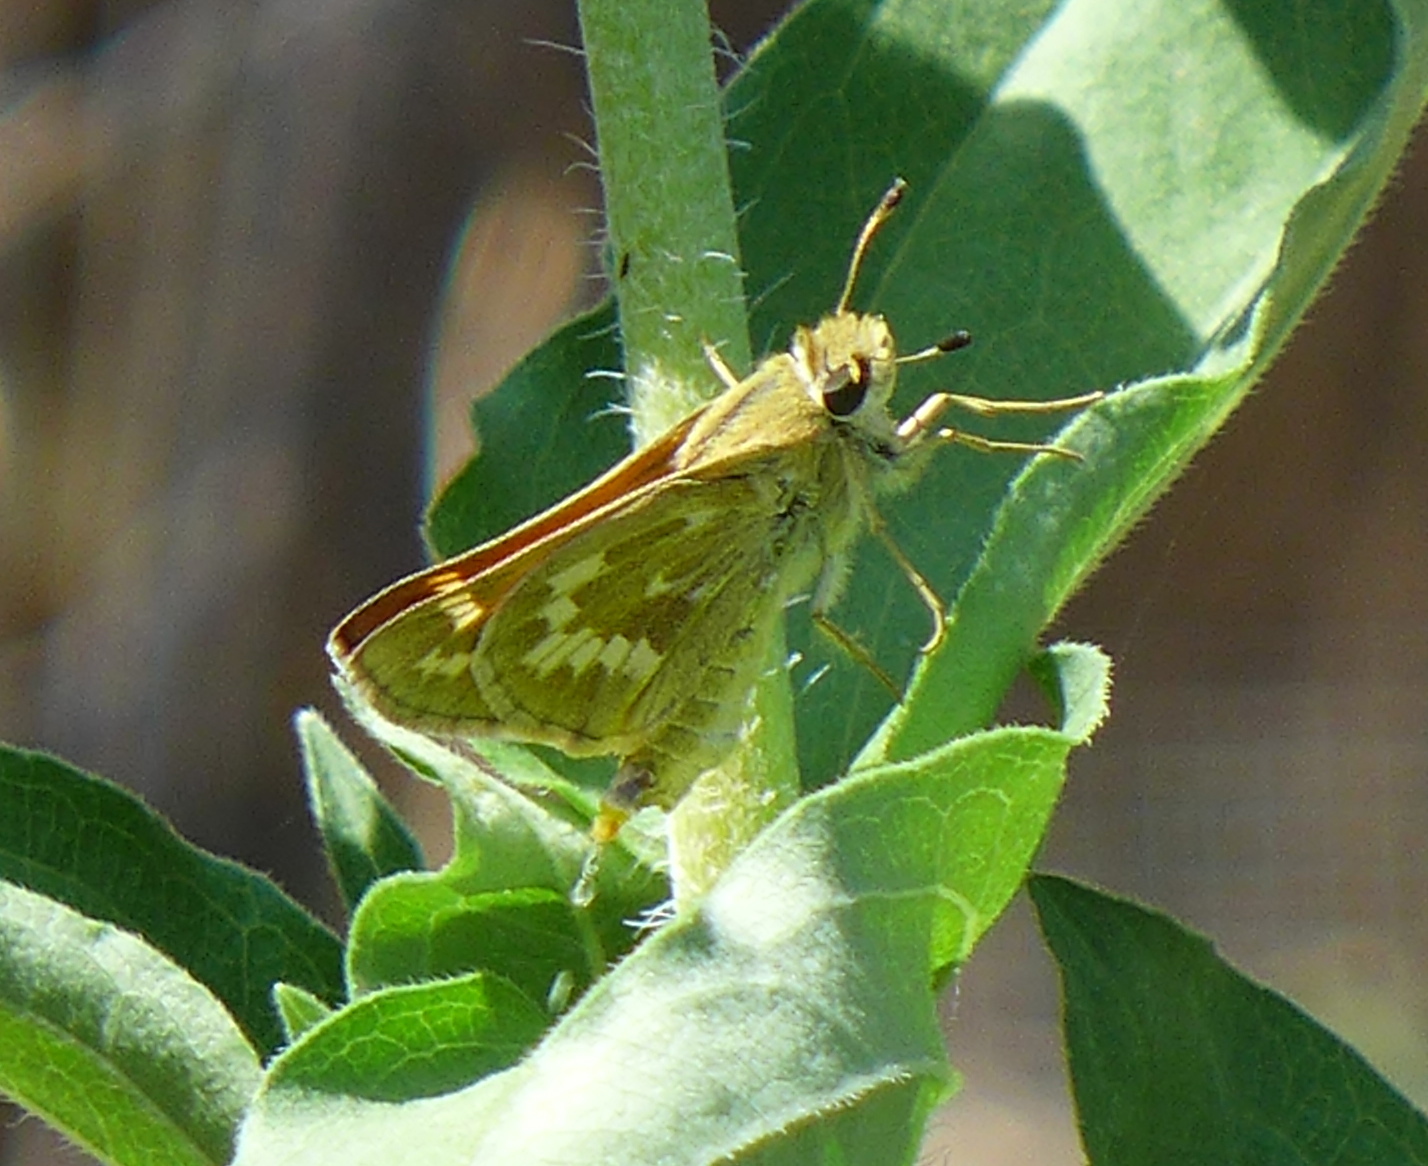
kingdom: Animalia
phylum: Arthropoda
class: Insecta
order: Lepidoptera
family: Hesperiidae
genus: Atalopedes
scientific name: Atalopedes campestris
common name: Sachem
